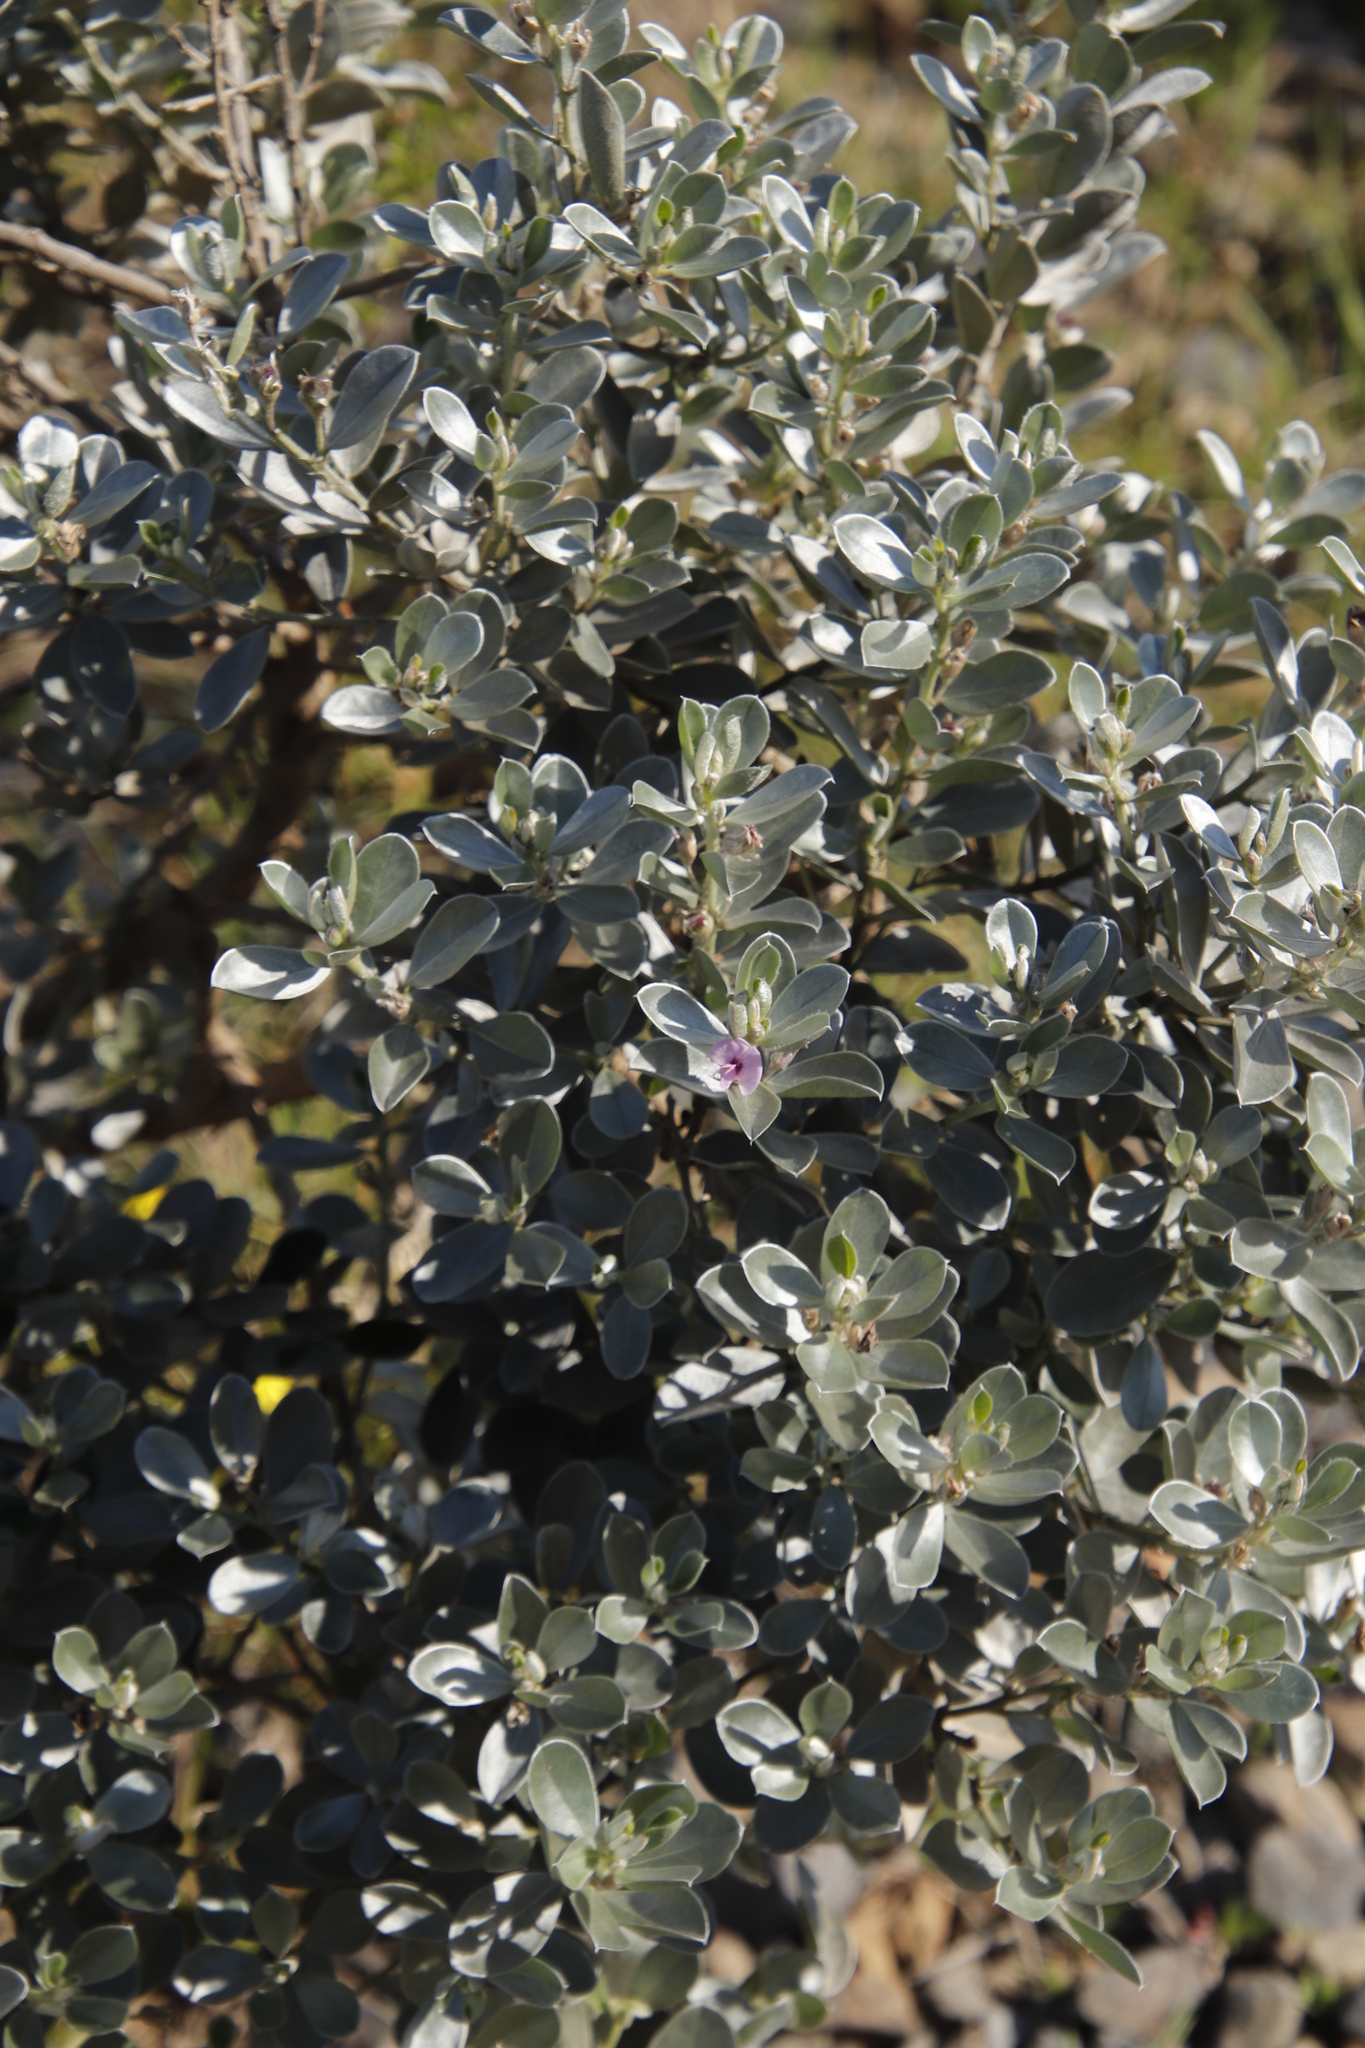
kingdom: Plantae
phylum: Tracheophyta
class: Magnoliopsida
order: Fabales
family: Fabaceae
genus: Podalyria
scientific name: Podalyria sericea
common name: Silver podalyria
